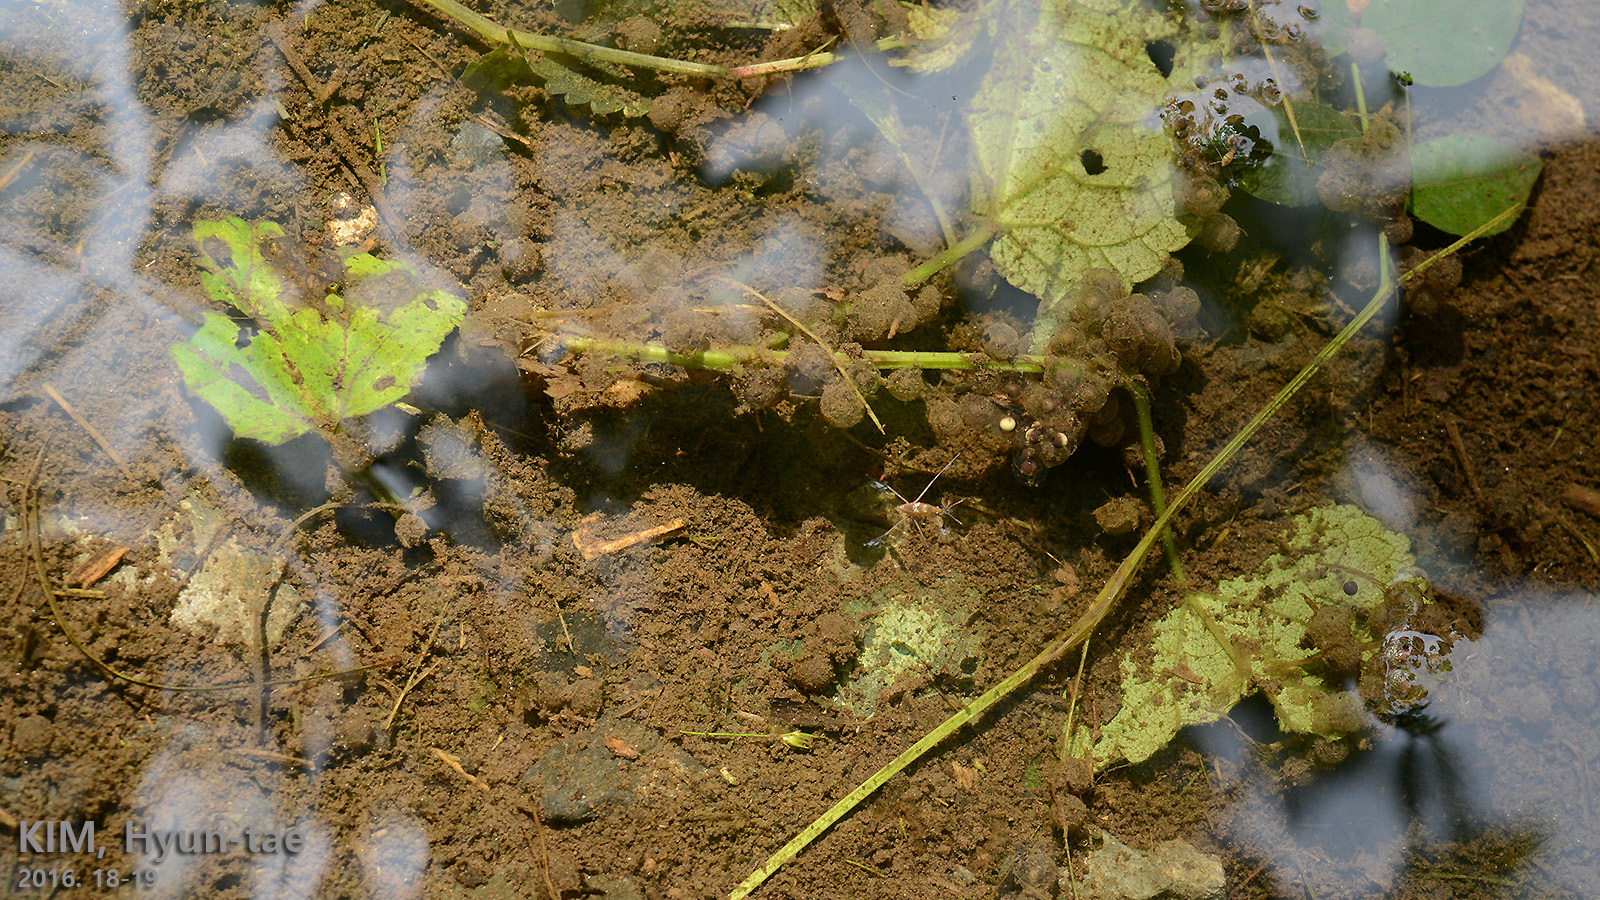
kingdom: Animalia
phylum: Chordata
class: Amphibia
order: Anura
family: Bombinatoridae
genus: Bombina
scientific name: Bombina orientalis
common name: Oriental firebelly toad
